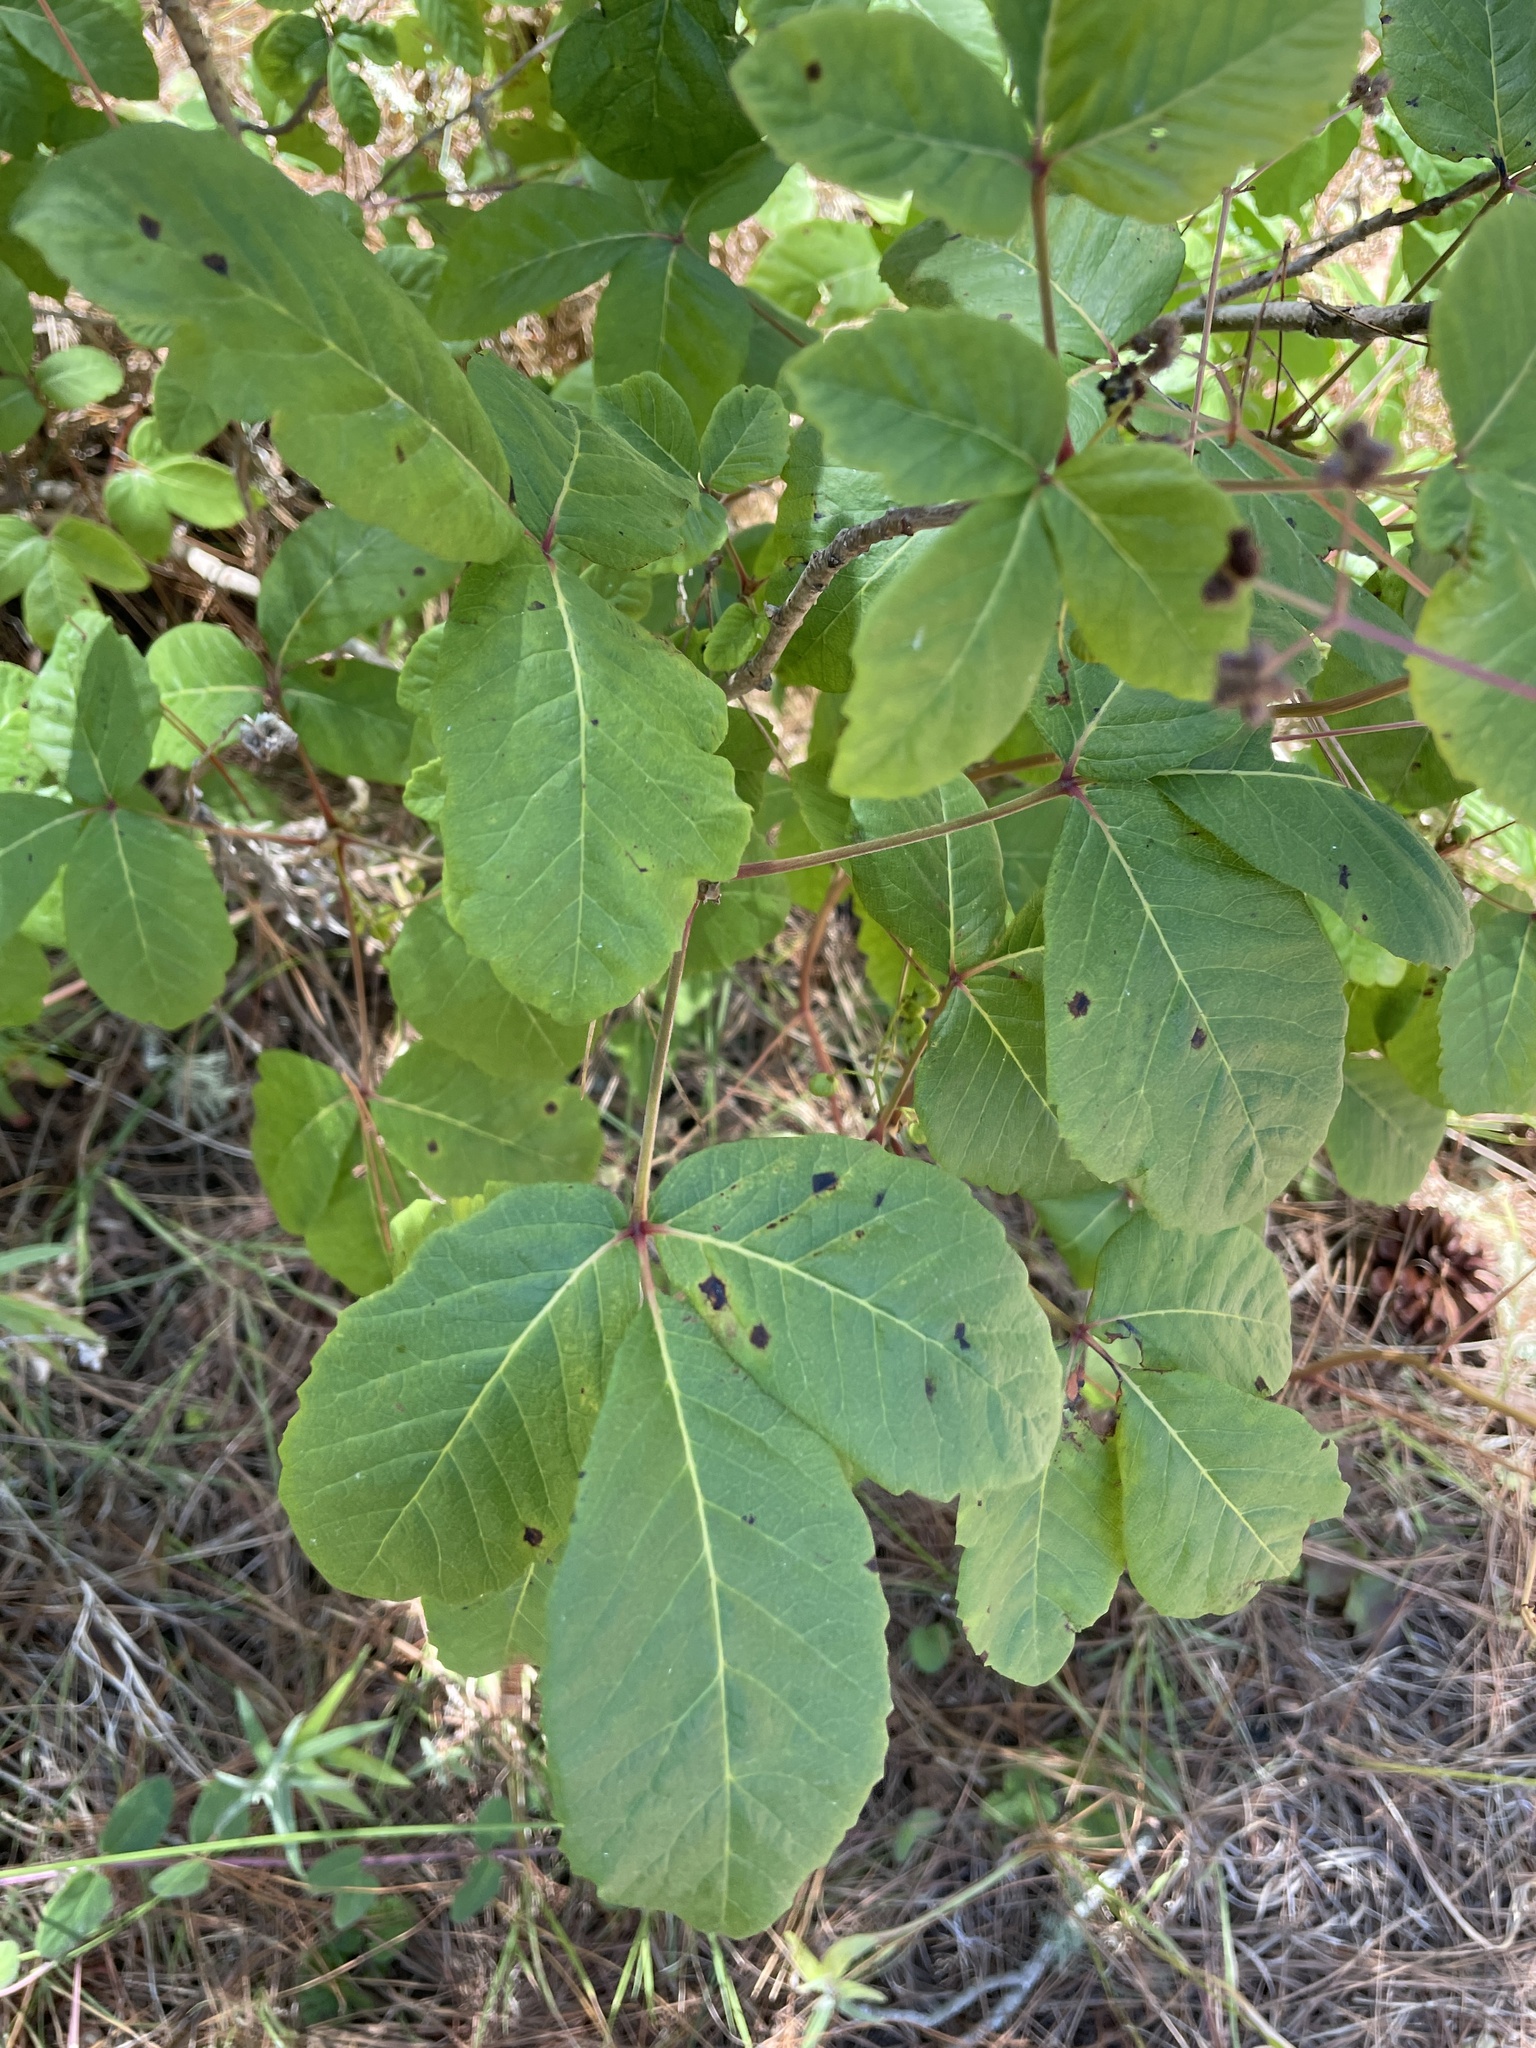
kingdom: Plantae
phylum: Tracheophyta
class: Magnoliopsida
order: Sapindales
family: Anacardiaceae
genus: Toxicodendron
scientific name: Toxicodendron diversilobum
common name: Pacific poison-oak
